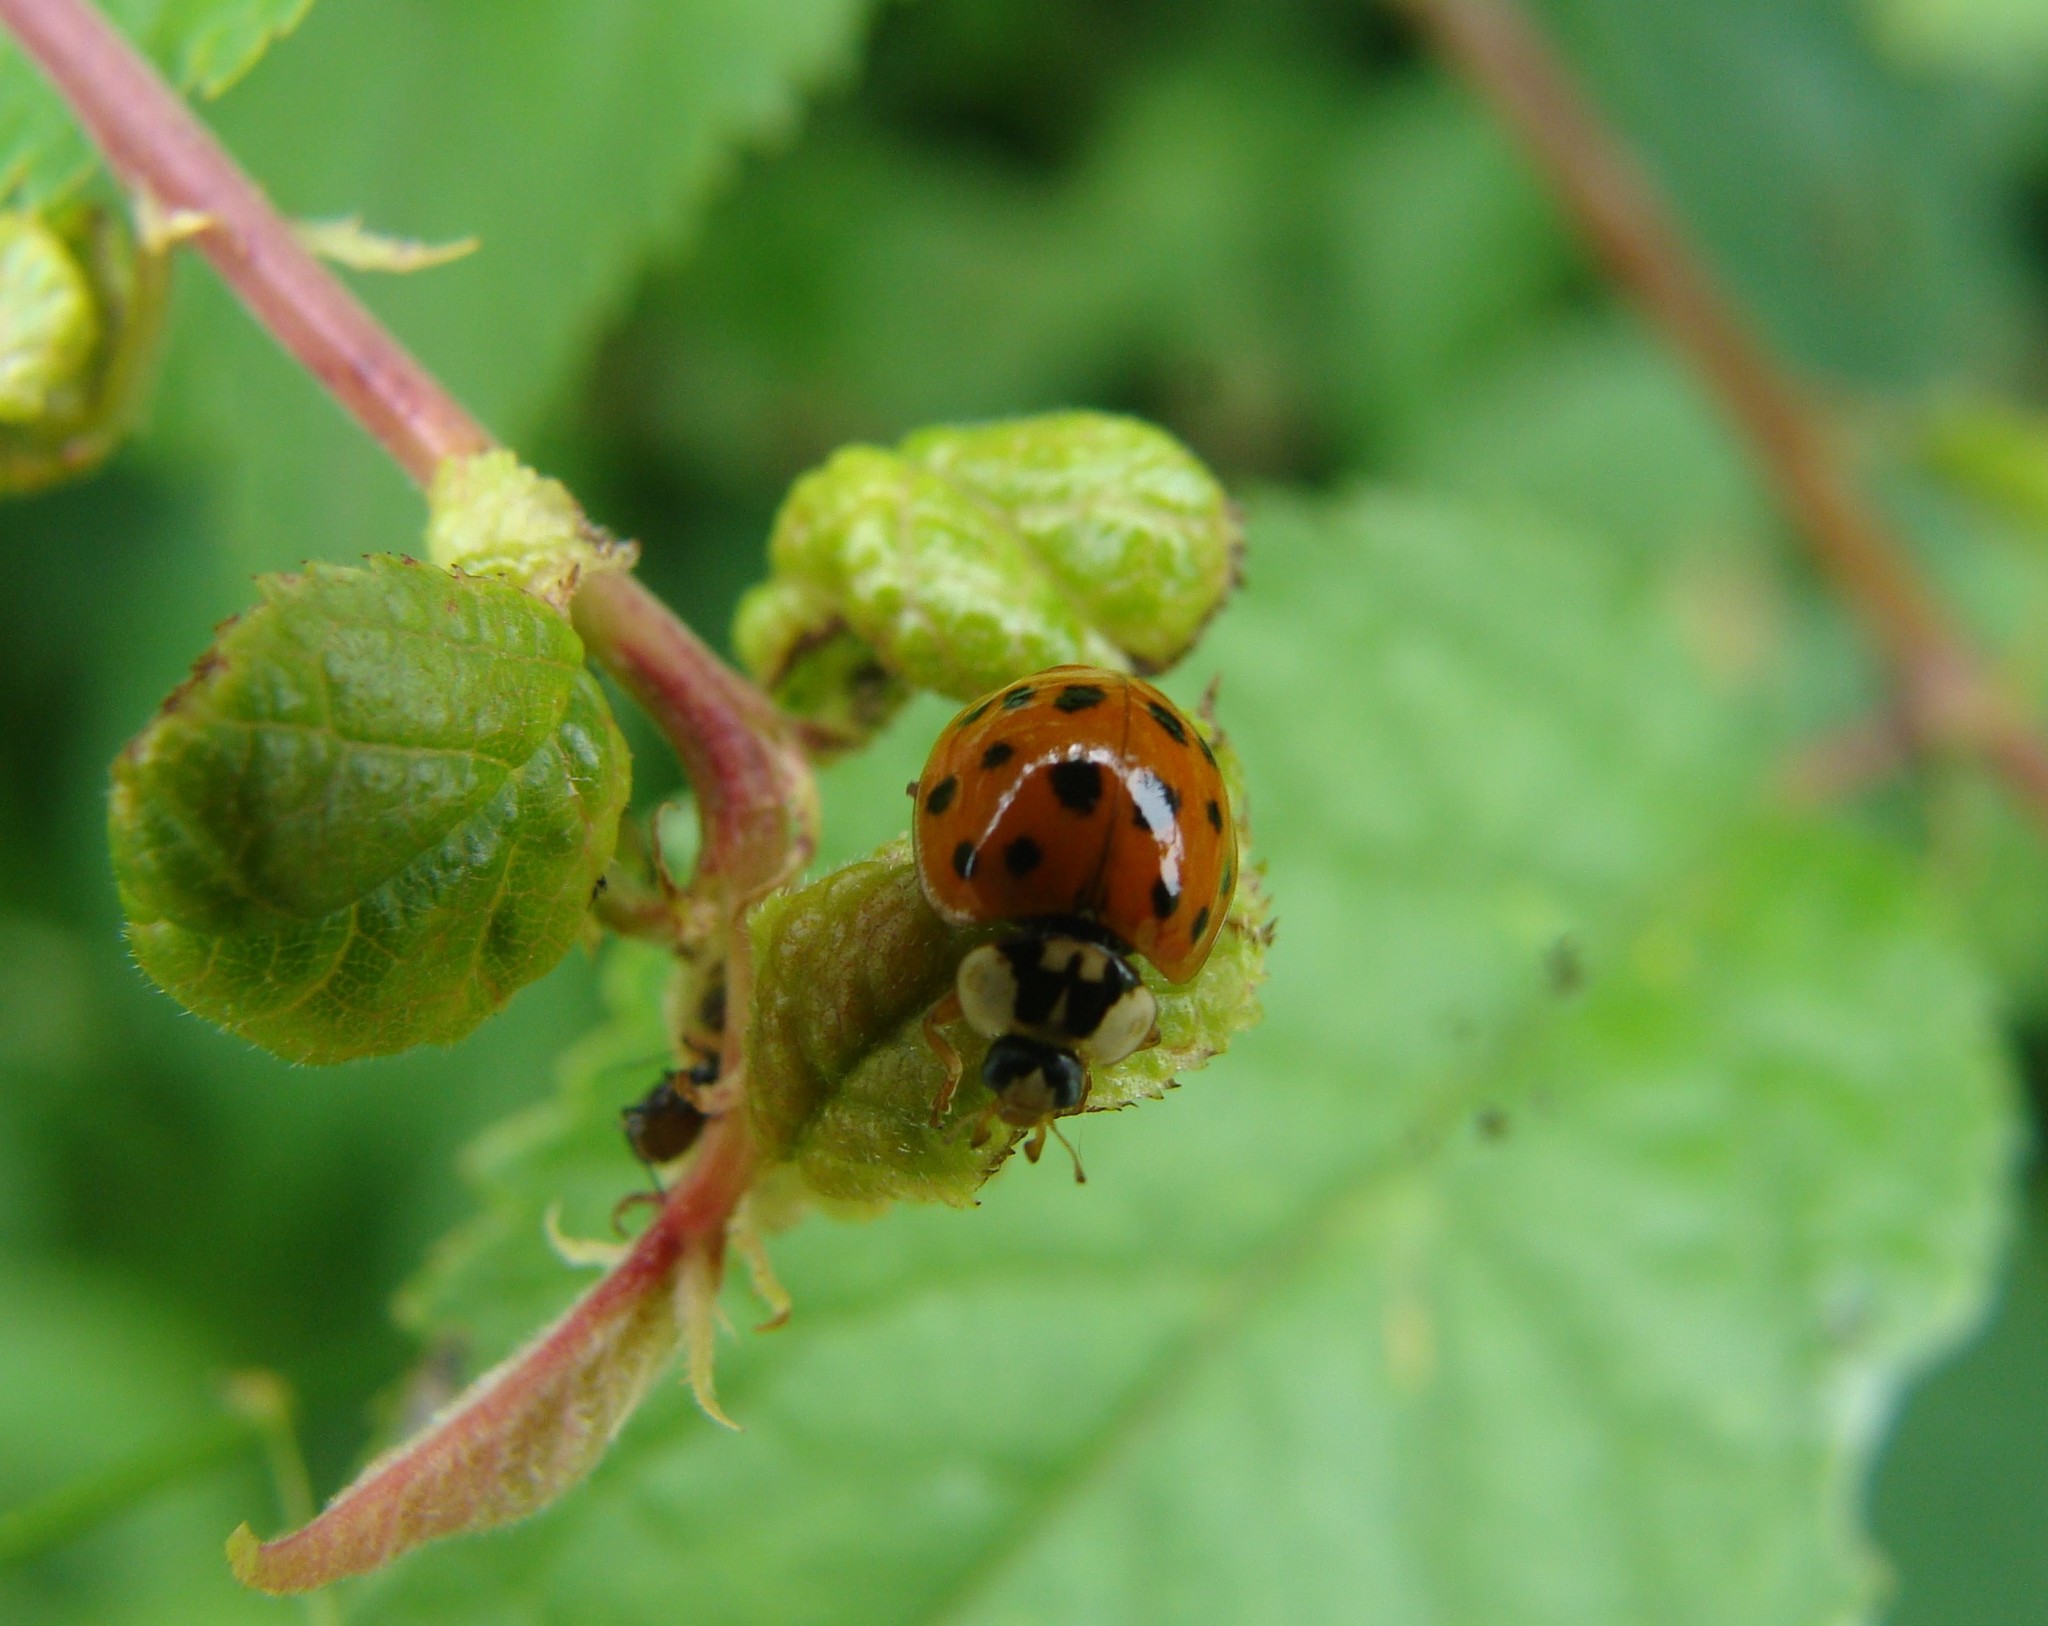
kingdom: Animalia
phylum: Arthropoda
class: Insecta
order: Coleoptera
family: Coccinellidae
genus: Harmonia
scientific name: Harmonia axyridis
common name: Harlequin ladybird
